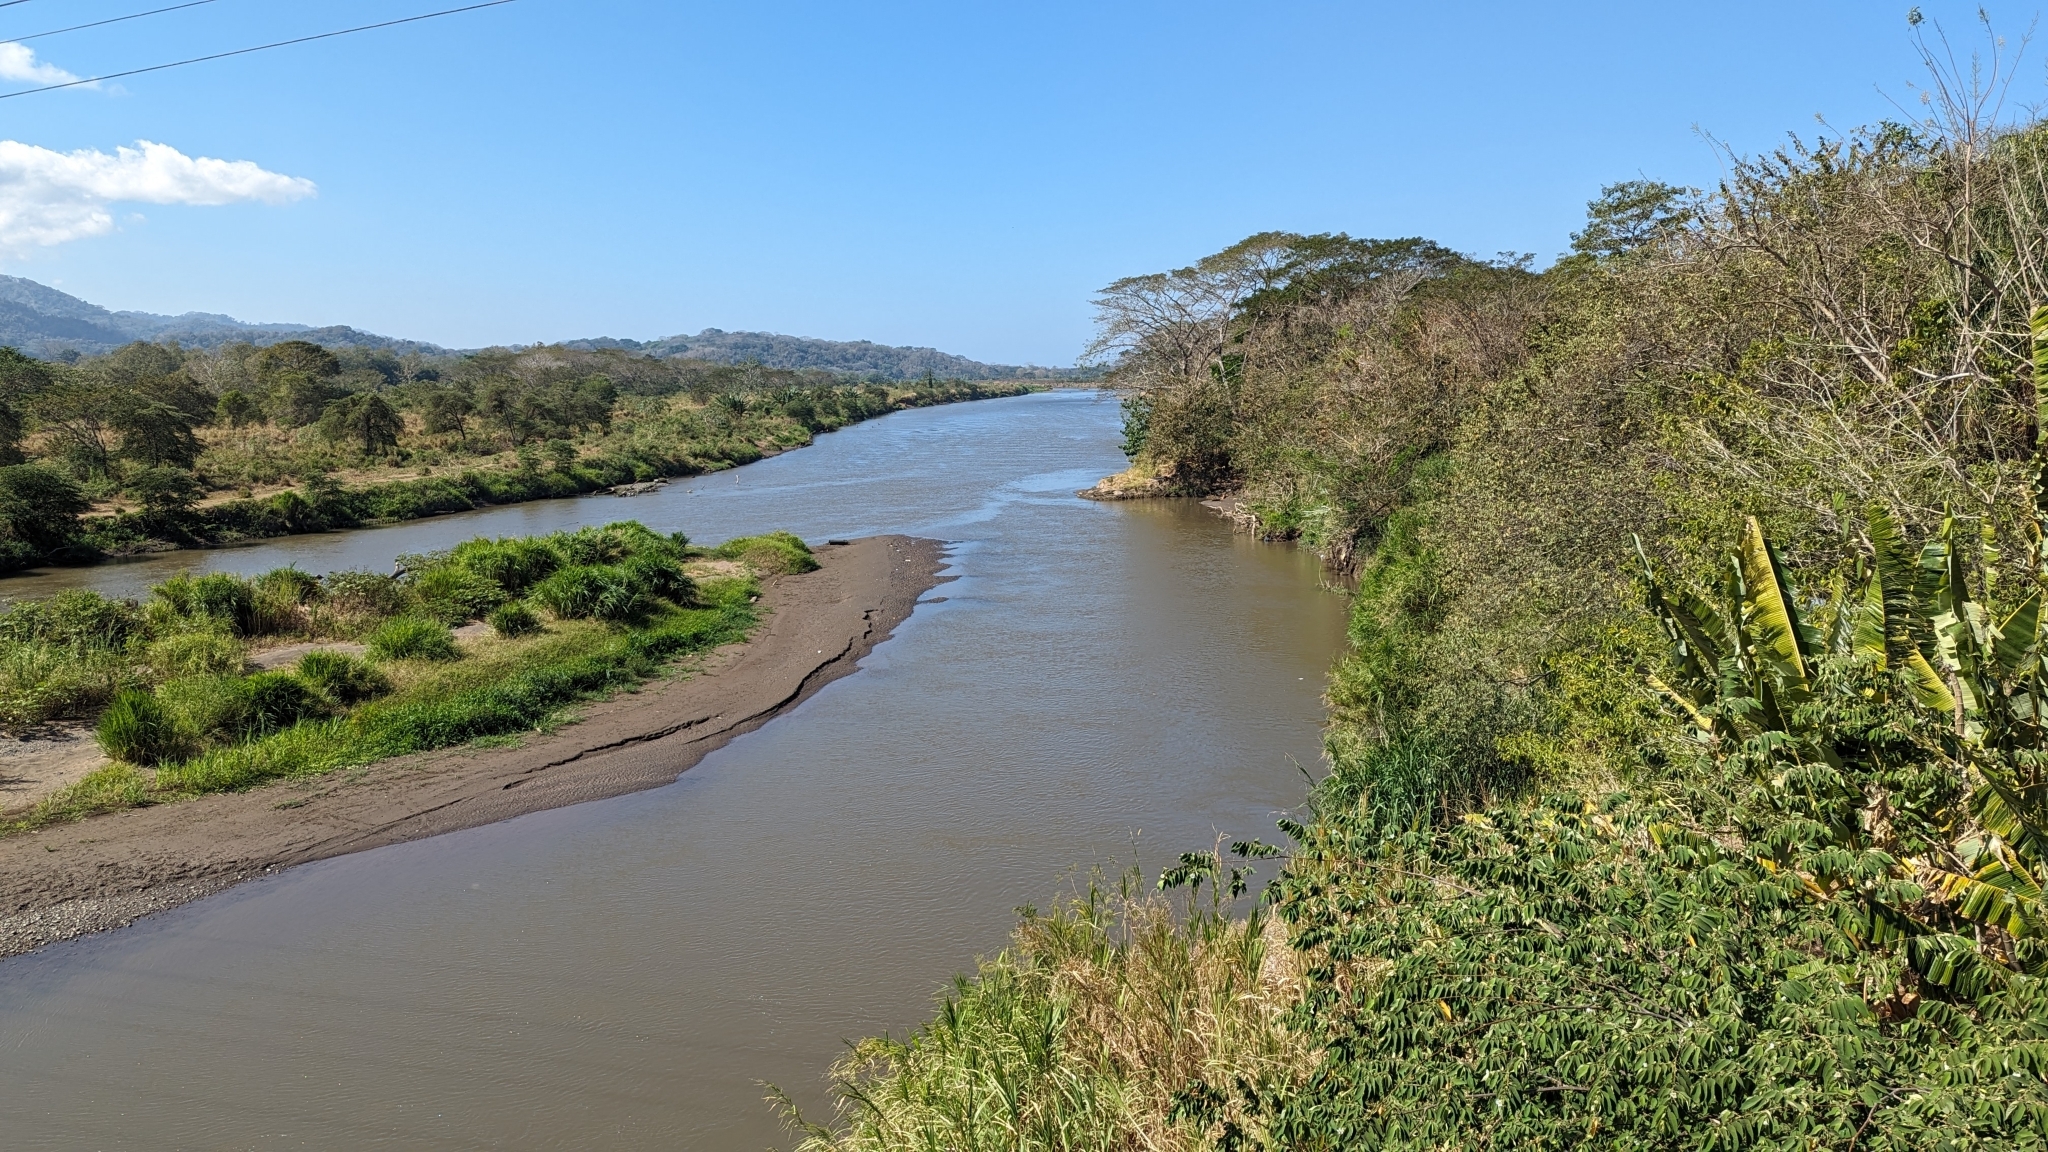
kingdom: Animalia
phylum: Chordata
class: Crocodylia
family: Crocodylidae
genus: Crocodylus
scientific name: Crocodylus acutus
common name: American crocodile
